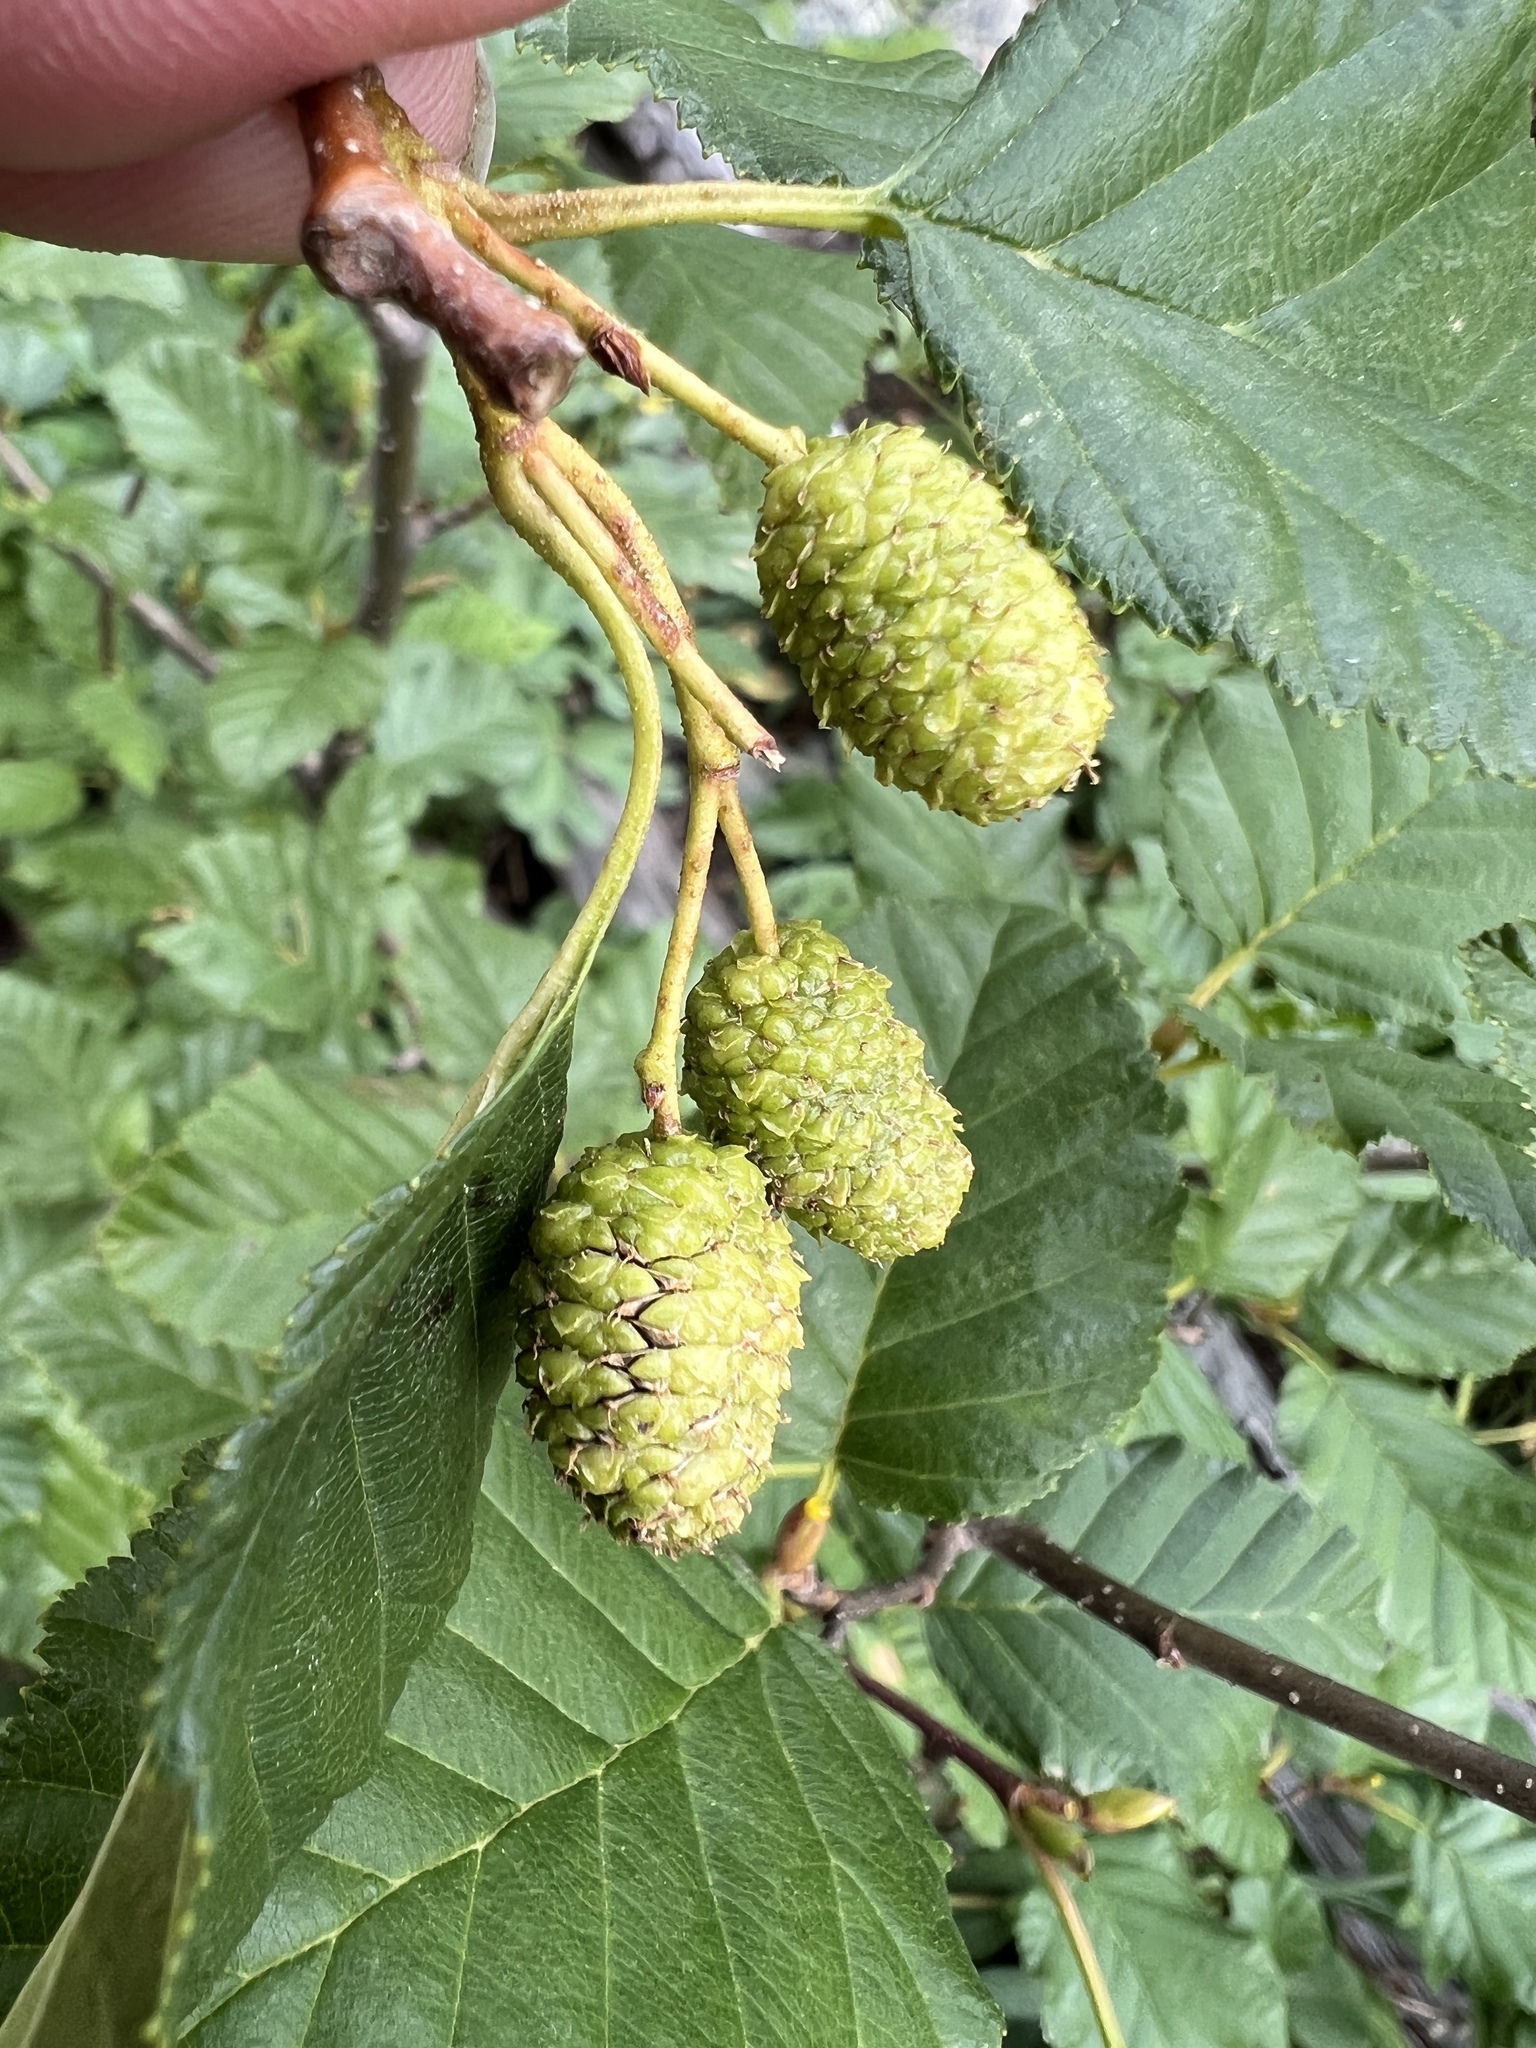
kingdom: Plantae
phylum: Tracheophyta
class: Magnoliopsida
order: Fagales
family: Betulaceae
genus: Alnus
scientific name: Alnus alnobetula
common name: Green alder
